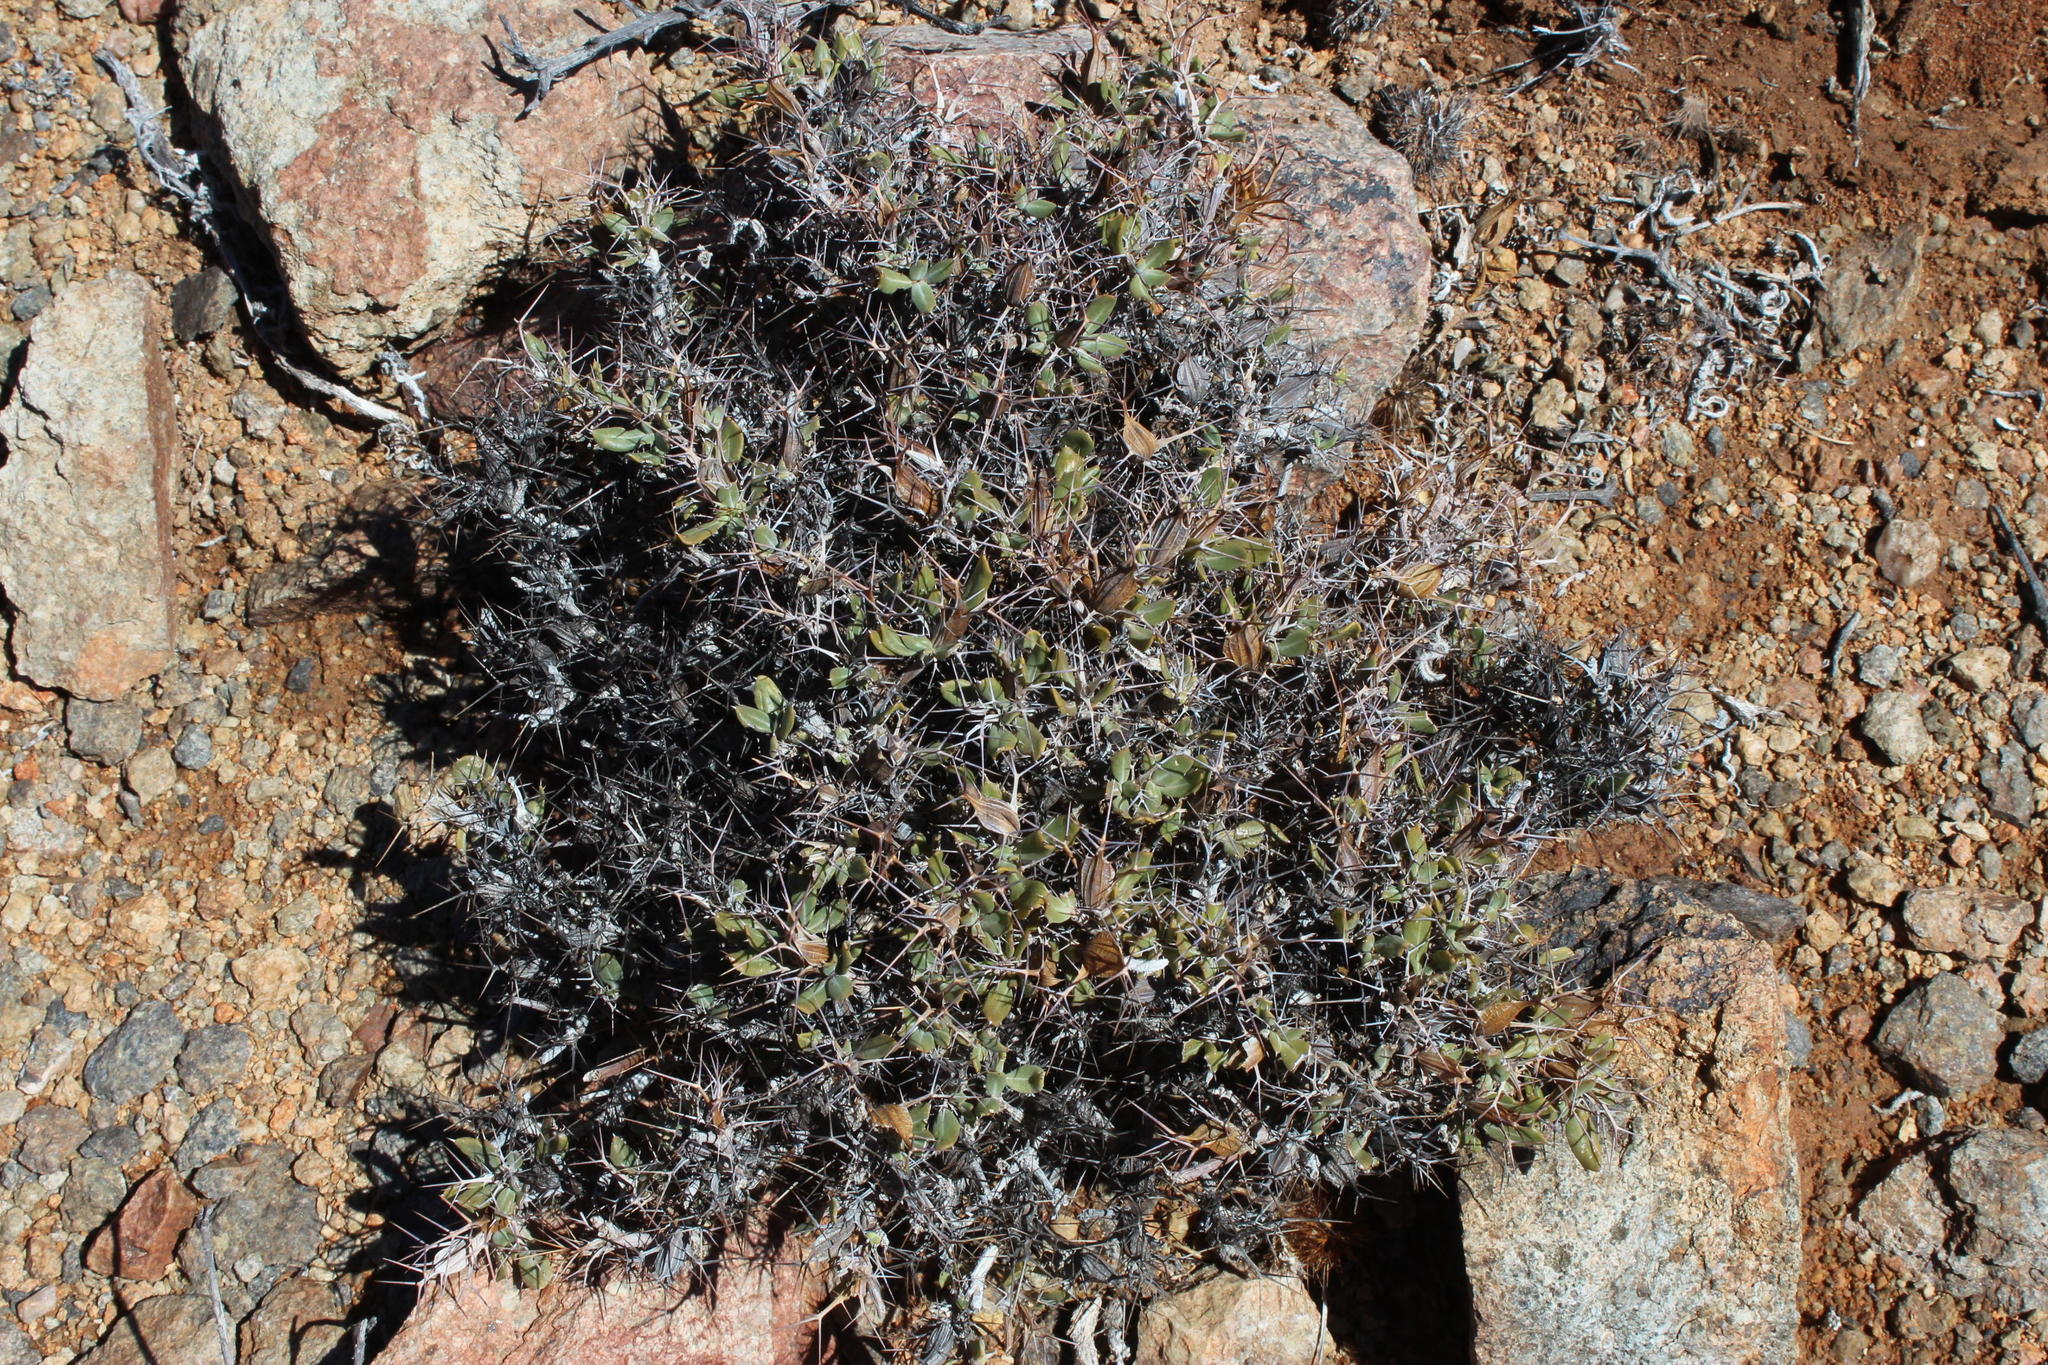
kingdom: Plantae
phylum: Tracheophyta
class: Magnoliopsida
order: Lamiales
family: Acanthaceae
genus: Blepharis
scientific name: Blepharis furcata
